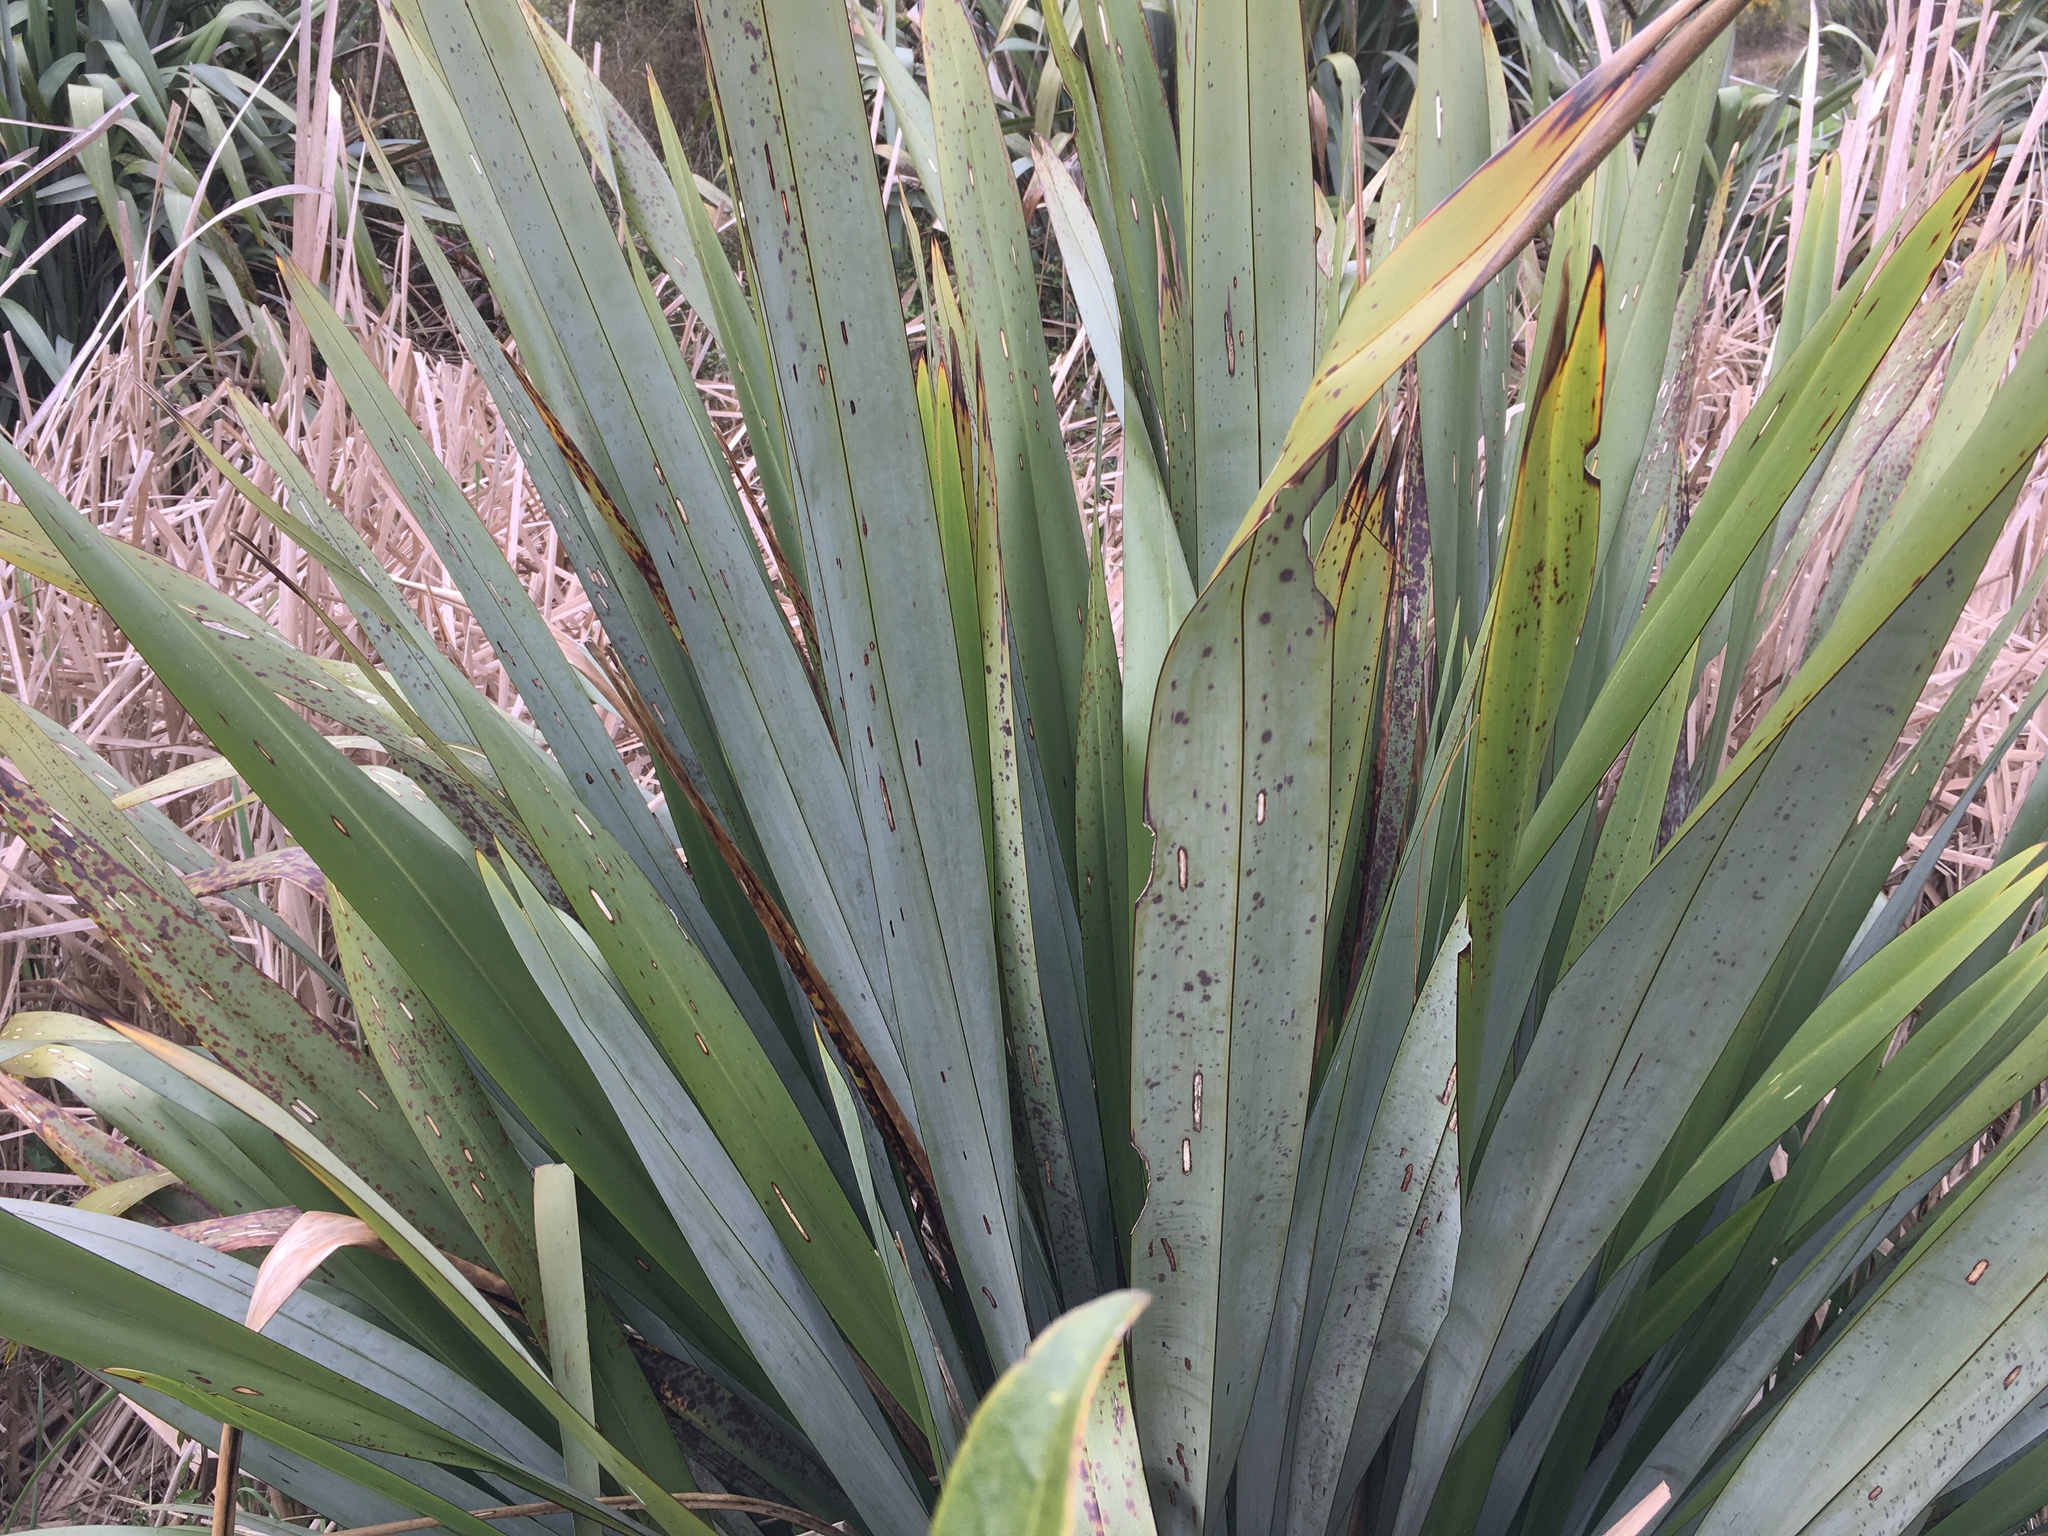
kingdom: Animalia
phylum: Arthropoda
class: Insecta
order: Lepidoptera
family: Noctuidae
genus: Ichneutica
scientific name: Ichneutica
